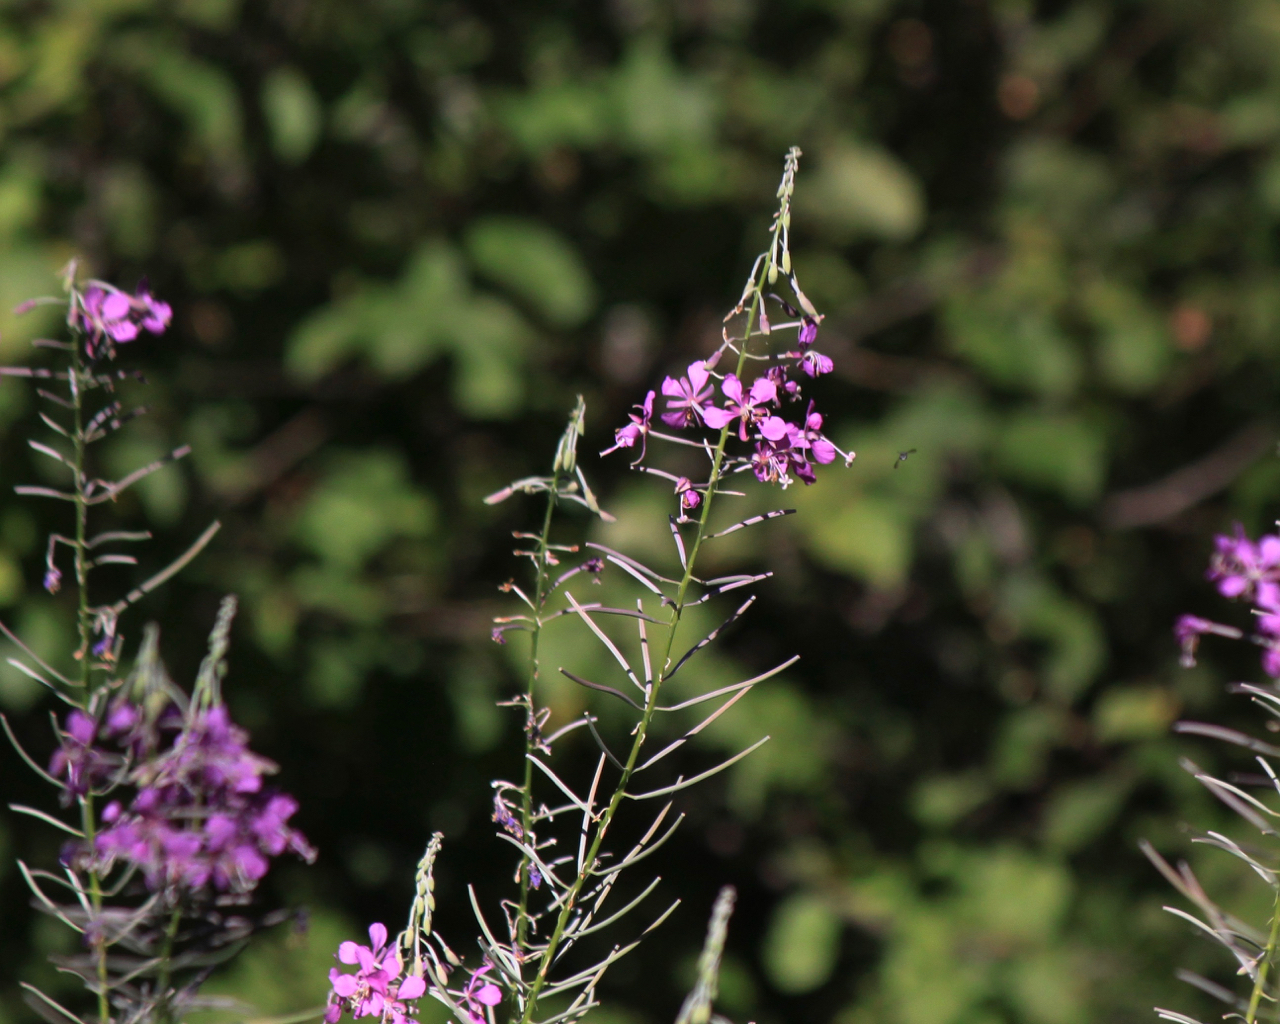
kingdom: Plantae
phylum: Tracheophyta
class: Magnoliopsida
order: Myrtales
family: Onagraceae
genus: Chamaenerion
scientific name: Chamaenerion angustifolium
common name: Fireweed
